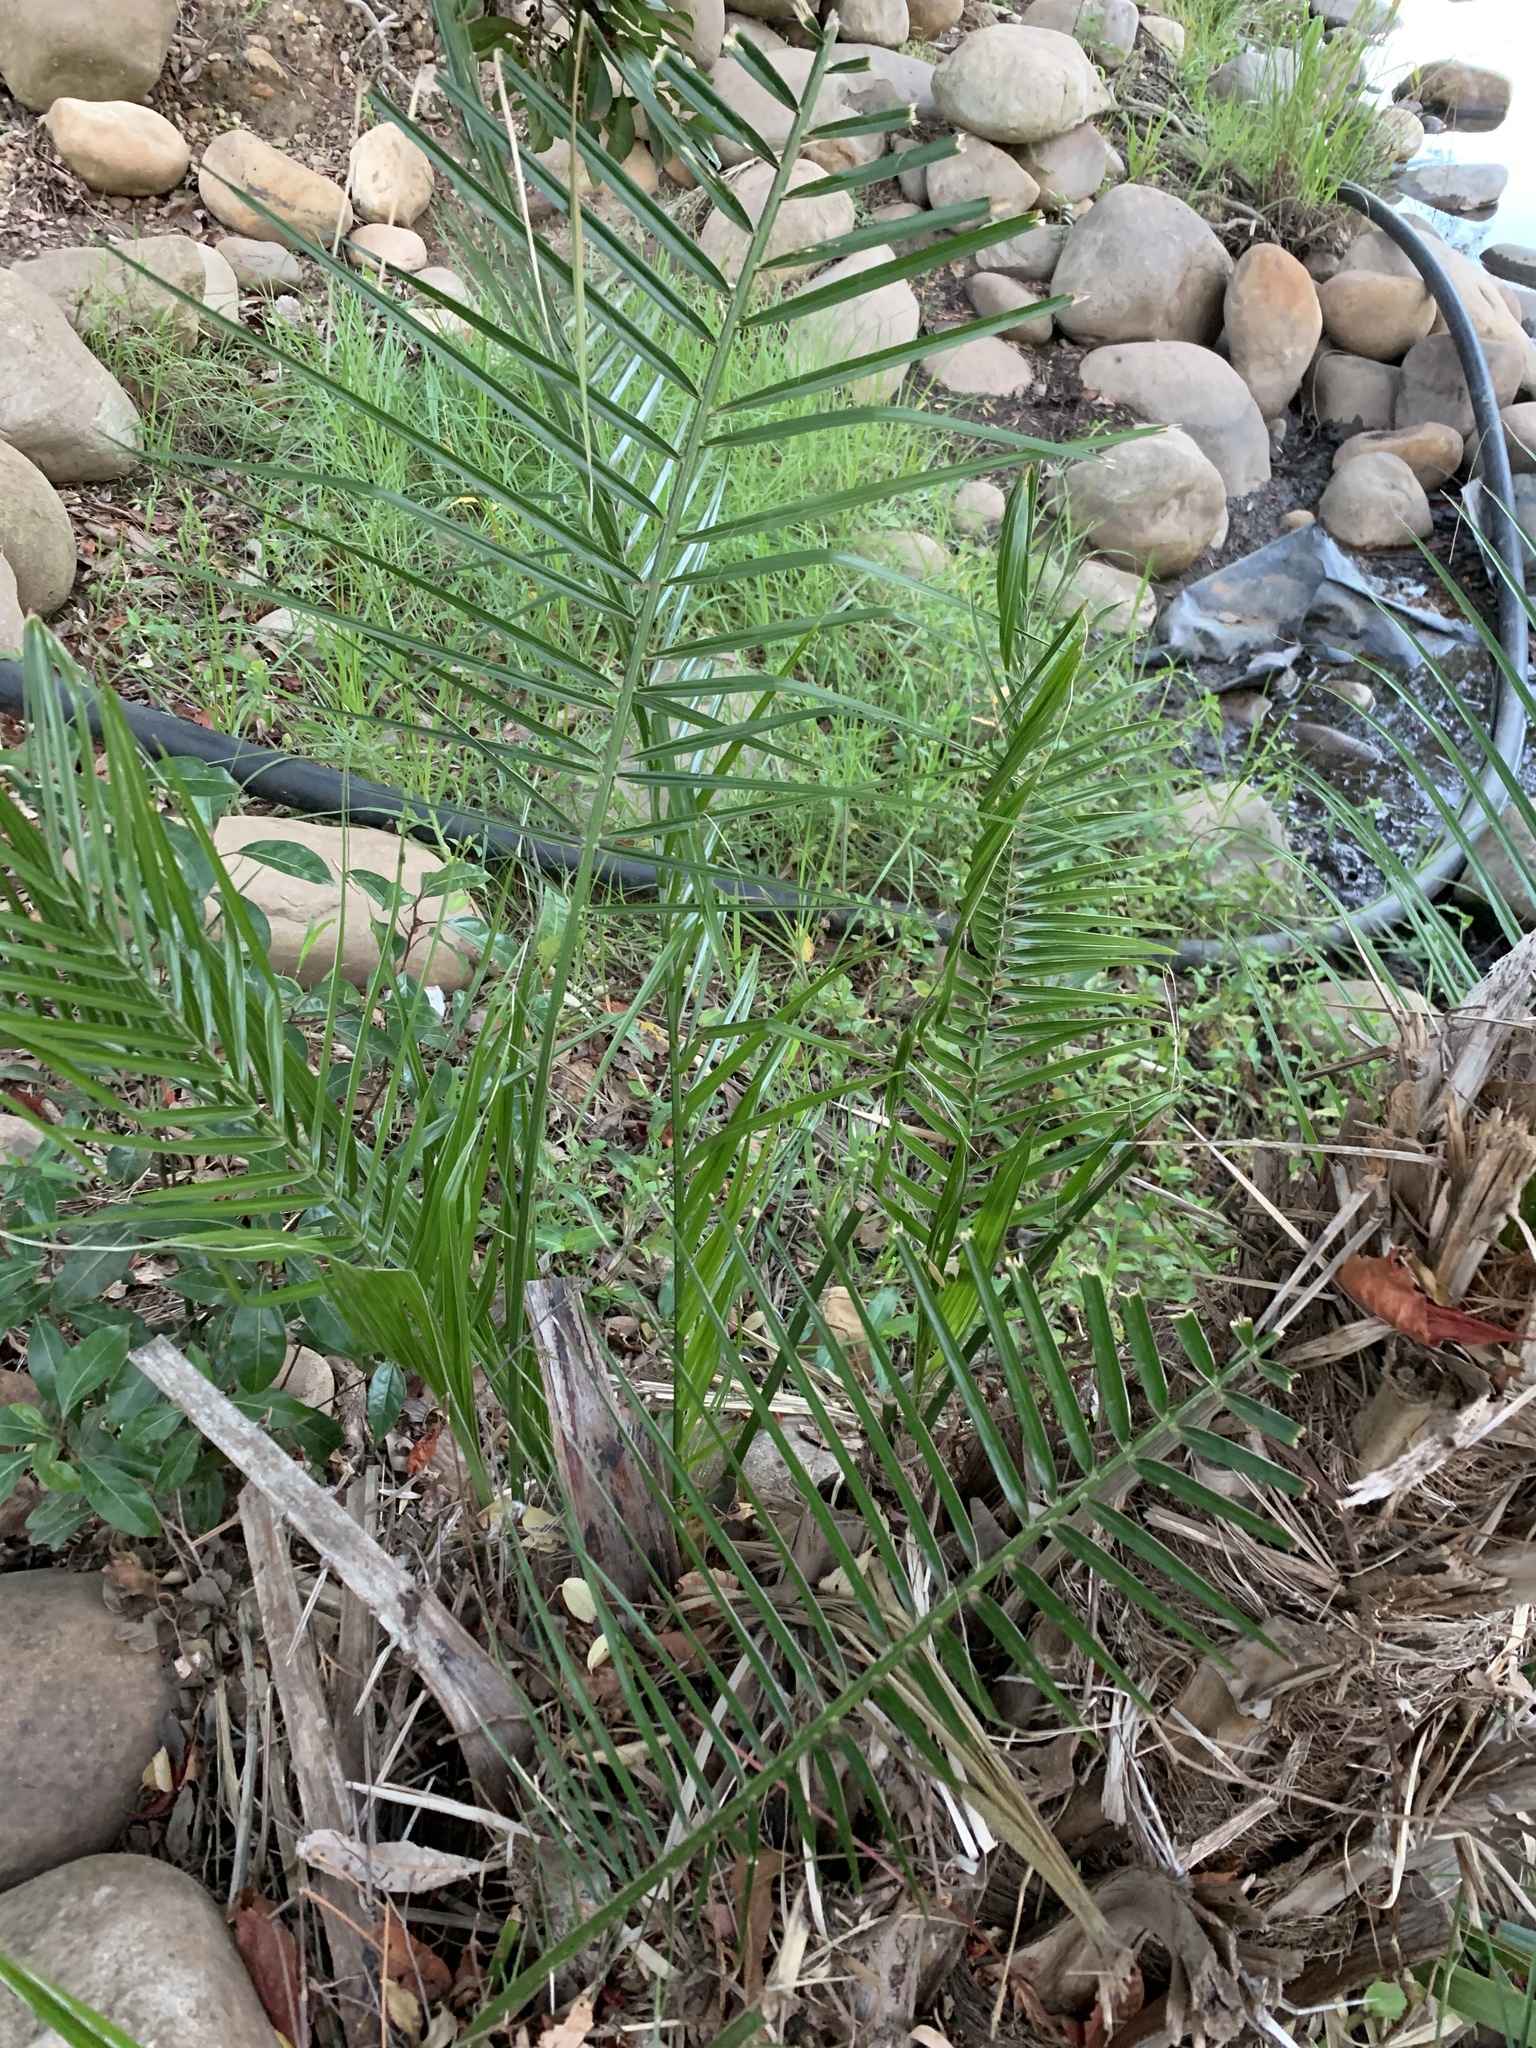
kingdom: Plantae
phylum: Tracheophyta
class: Liliopsida
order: Arecales
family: Arecaceae
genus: Phoenix
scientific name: Phoenix reclinata
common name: Senegal date palm
